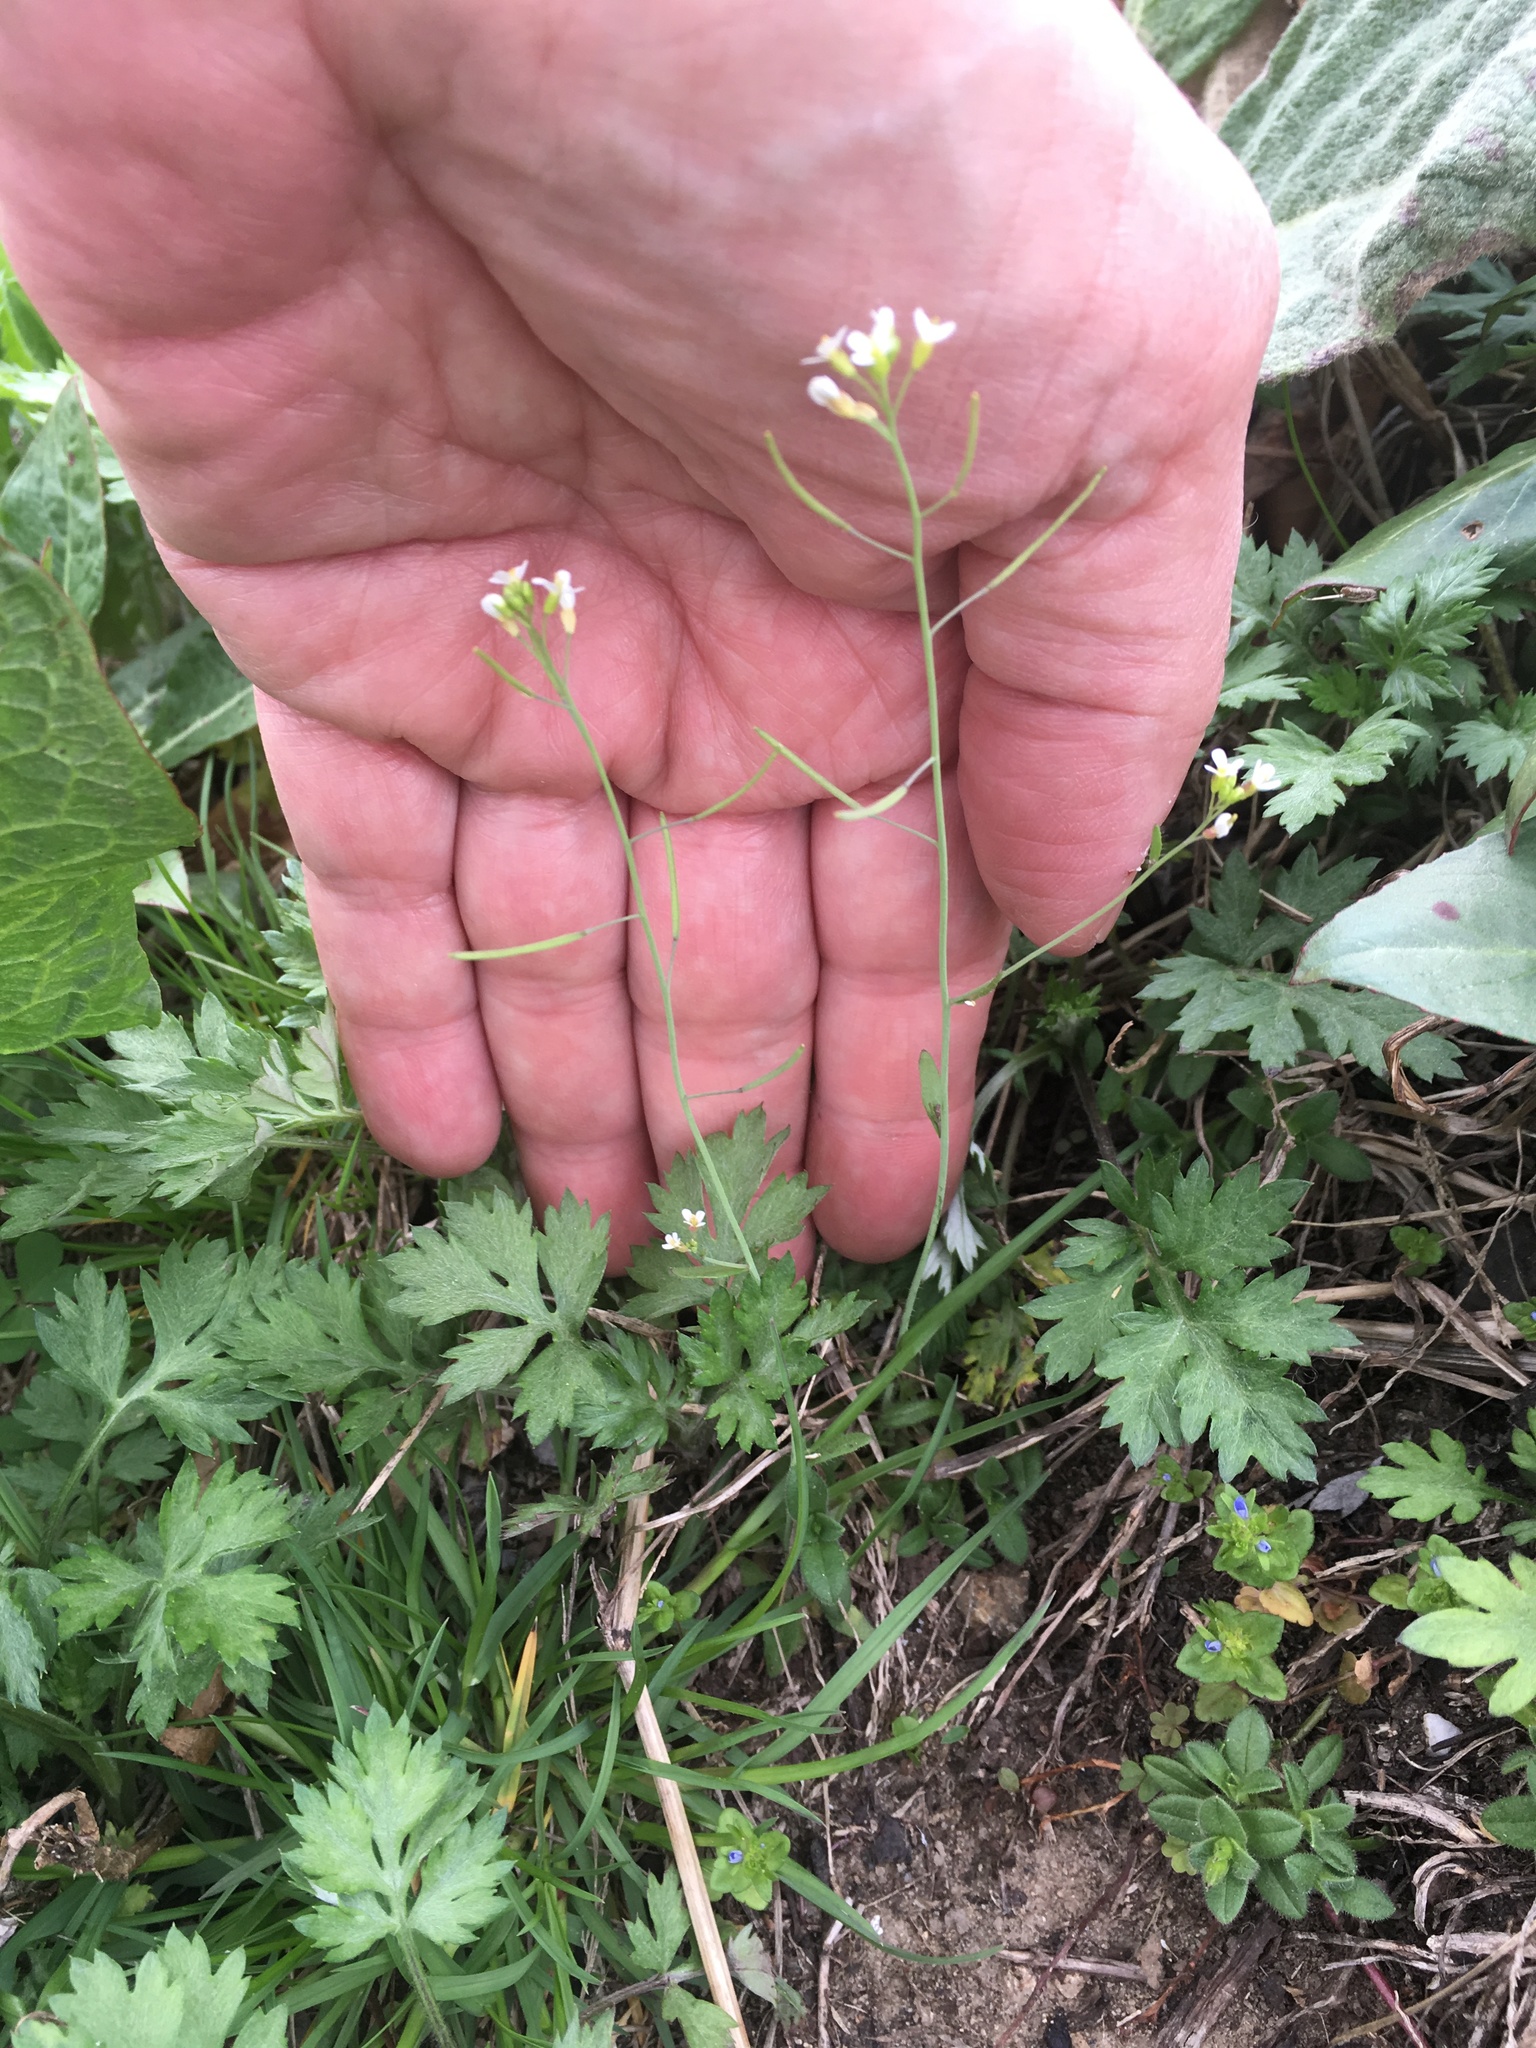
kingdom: Plantae
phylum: Tracheophyta
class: Magnoliopsida
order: Brassicales
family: Brassicaceae
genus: Arabidopsis
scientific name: Arabidopsis thaliana
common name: Thale cress
